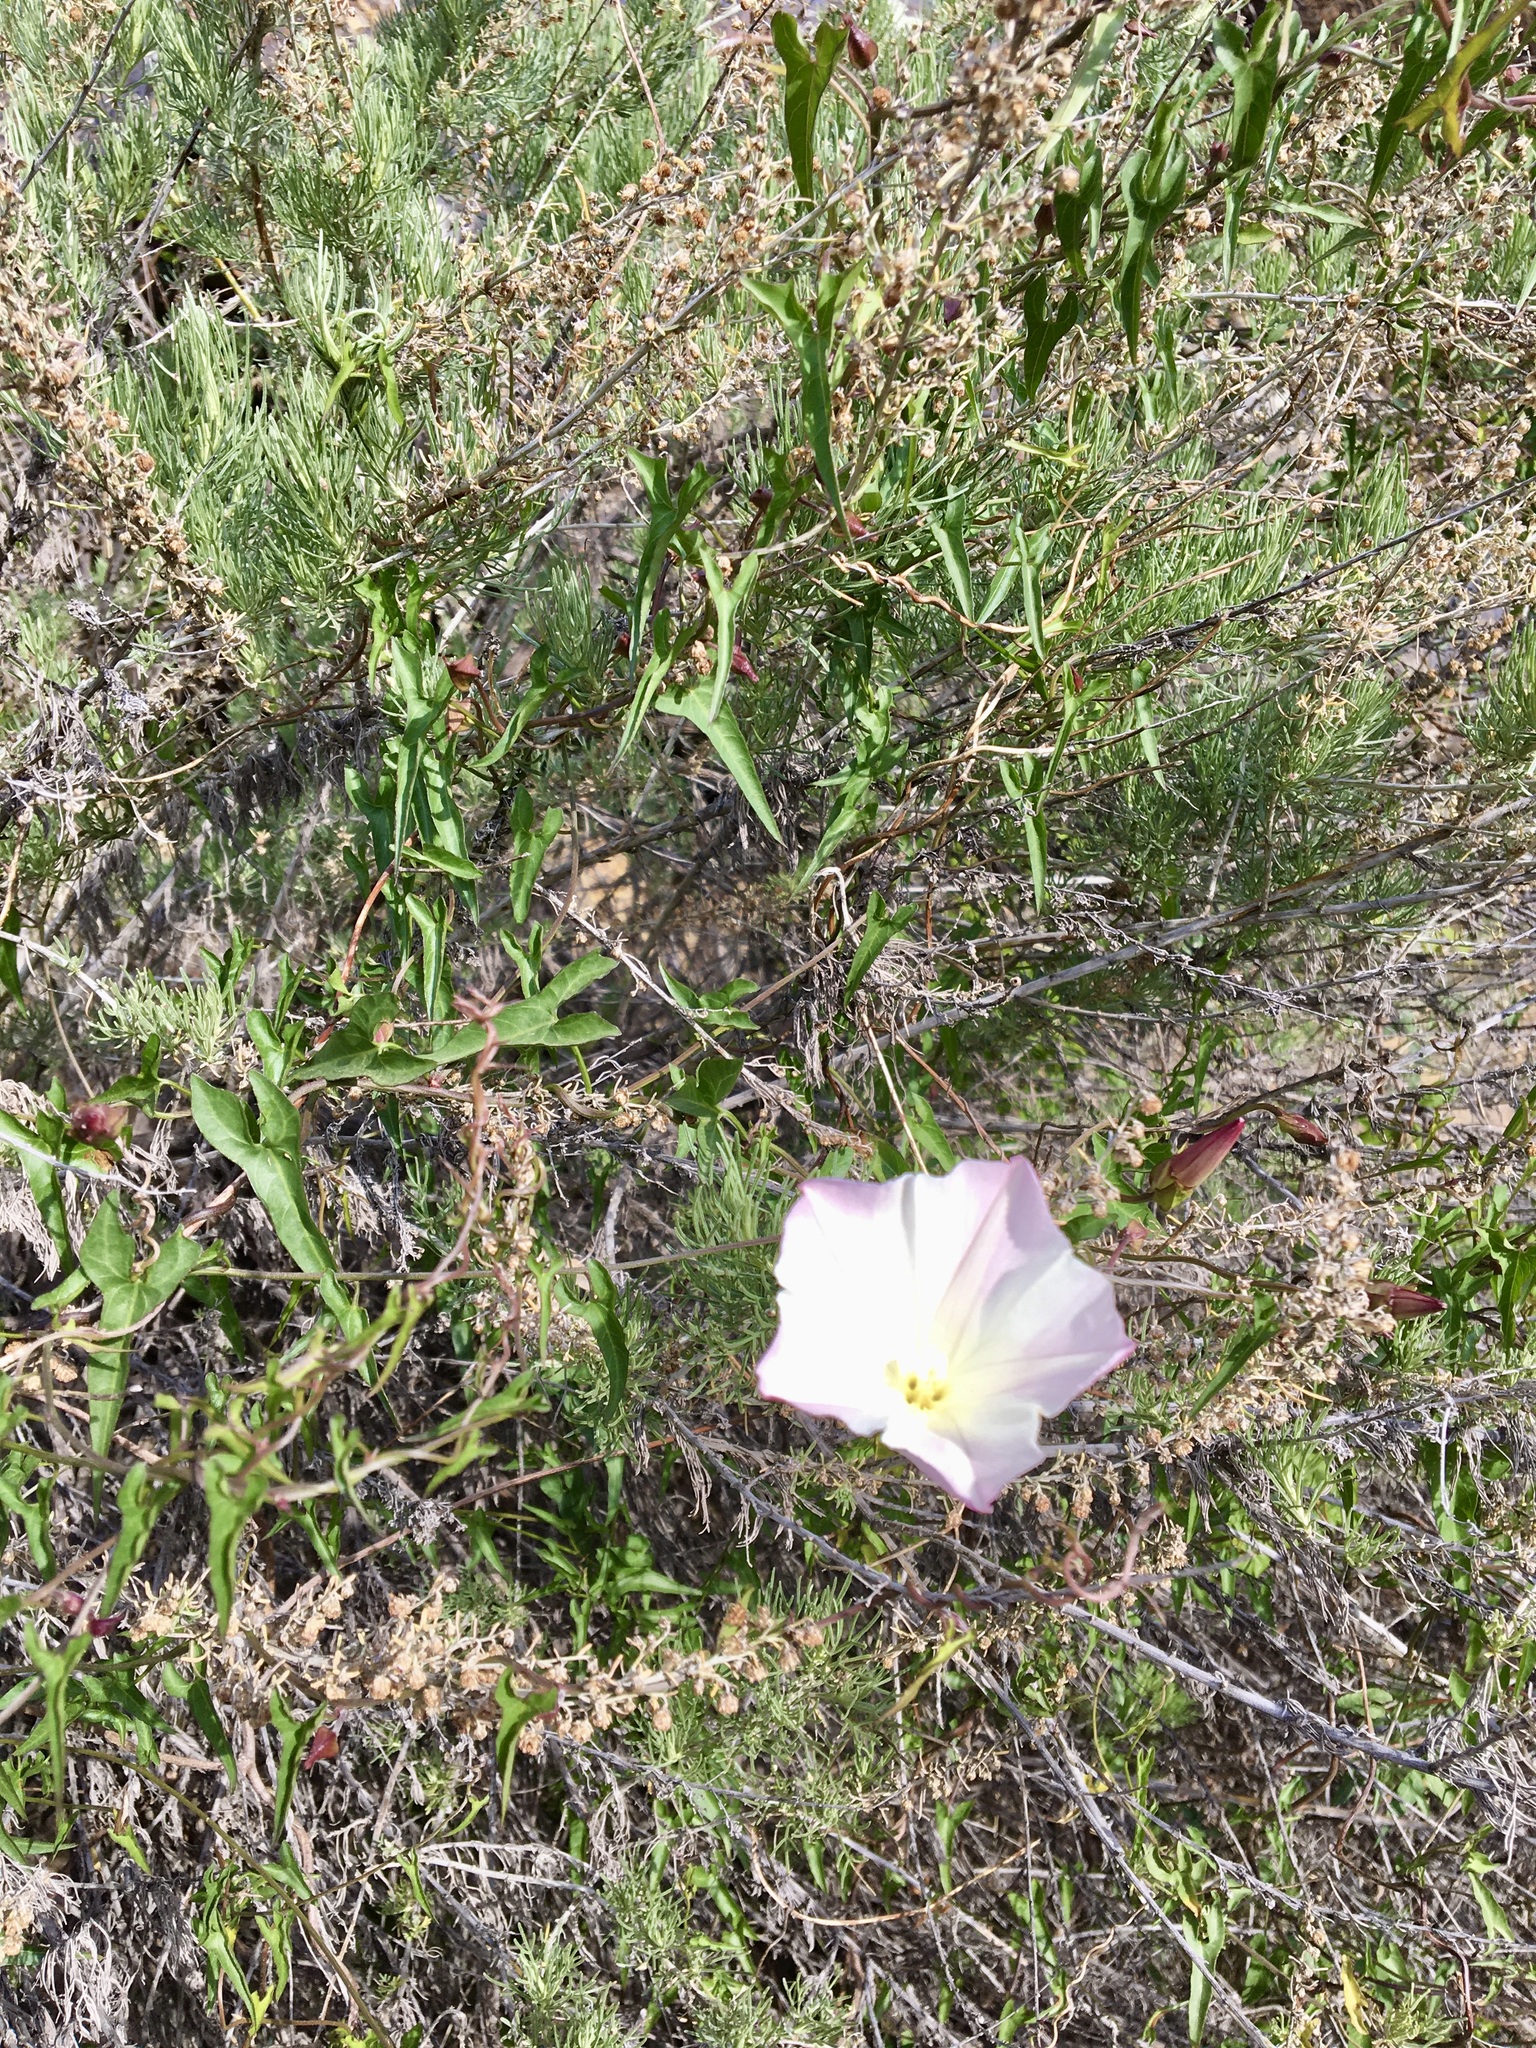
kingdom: Plantae
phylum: Tracheophyta
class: Magnoliopsida
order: Solanales
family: Convolvulaceae
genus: Calystegia
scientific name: Calystegia macrostegia
